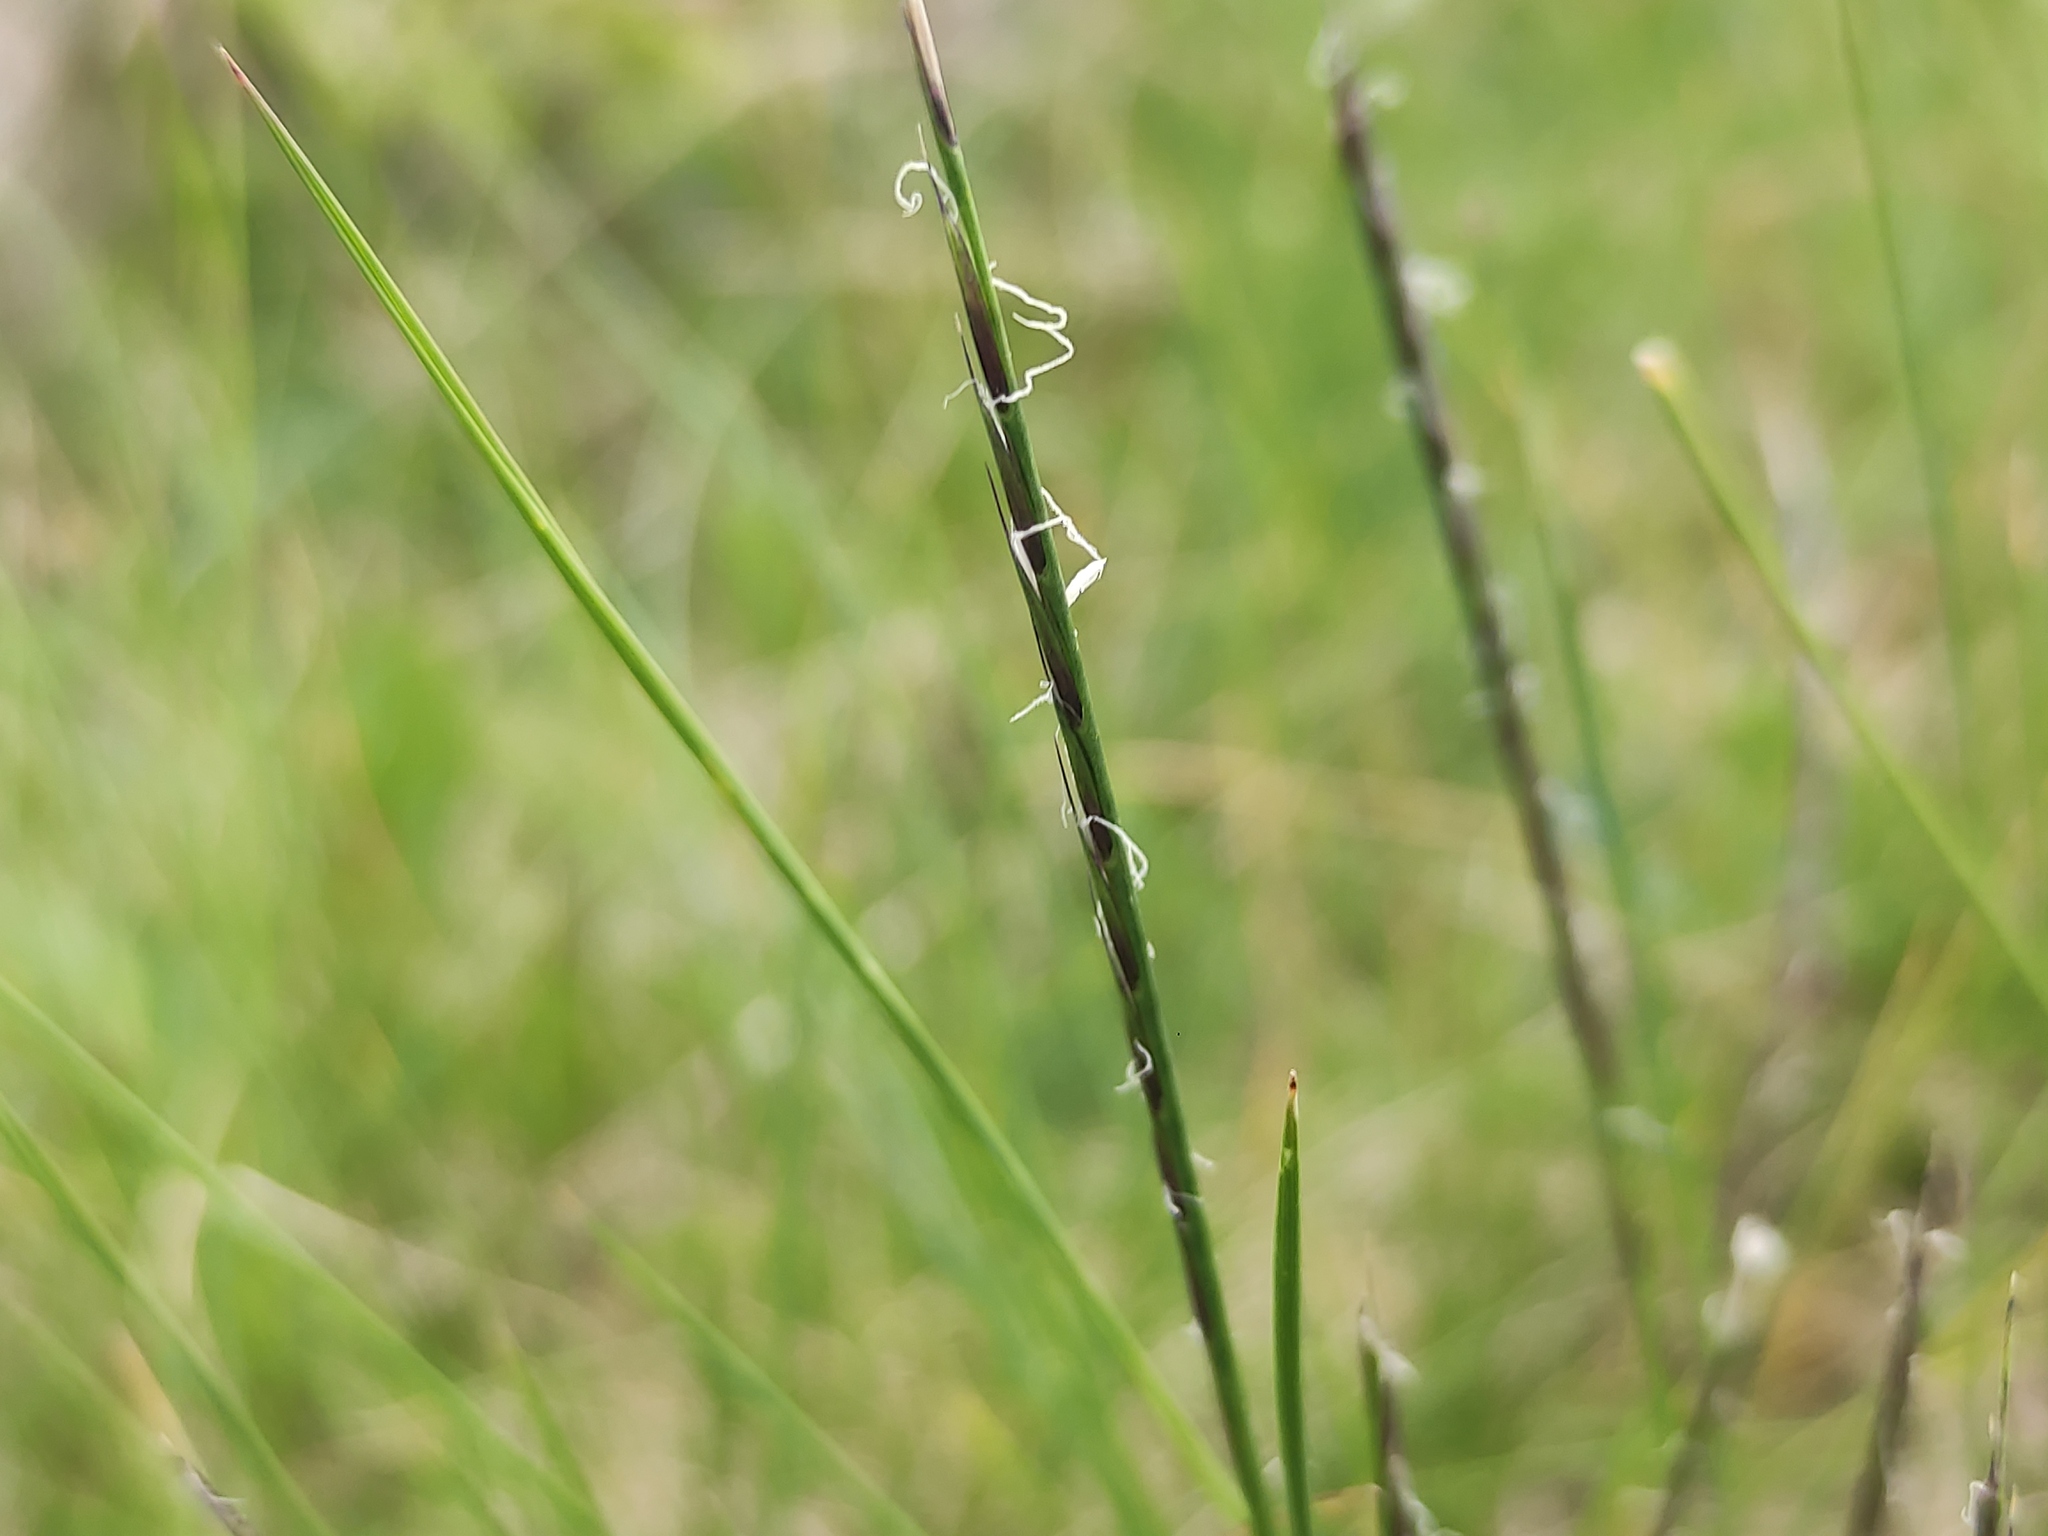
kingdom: Plantae
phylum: Tracheophyta
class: Liliopsida
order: Poales
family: Poaceae
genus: Nardus
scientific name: Nardus stricta
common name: Mat-grass
